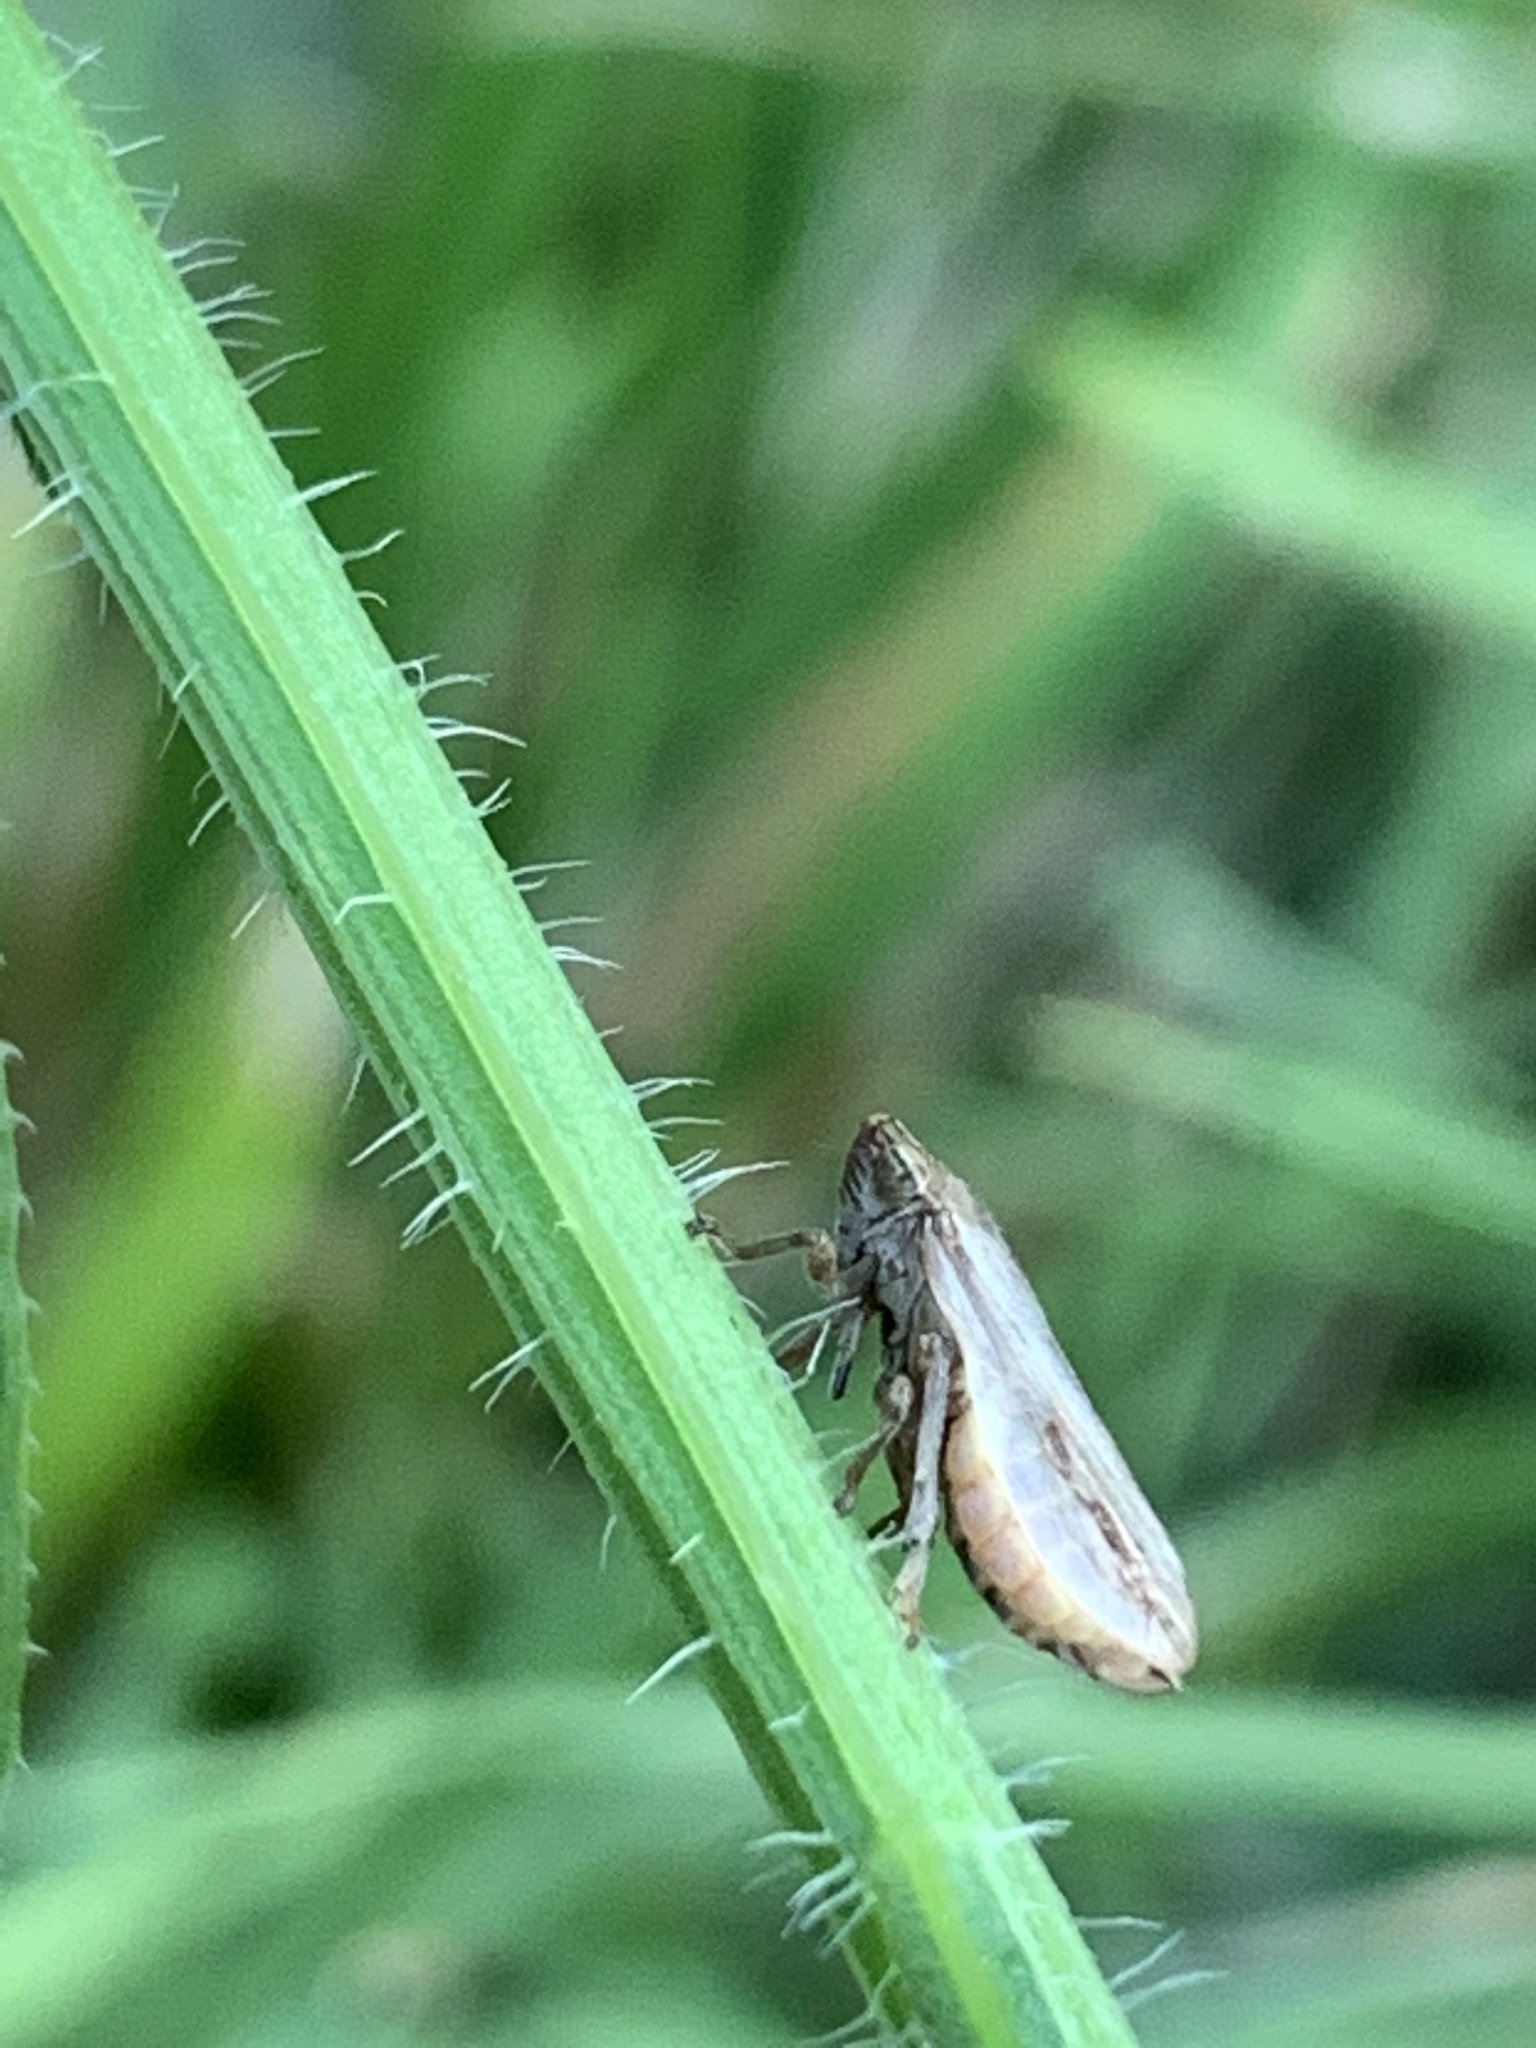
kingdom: Animalia
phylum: Arthropoda
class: Insecta
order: Hemiptera
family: Aphrophoridae
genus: Philaenus
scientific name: Philaenus spumarius
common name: Meadow spittlebug
